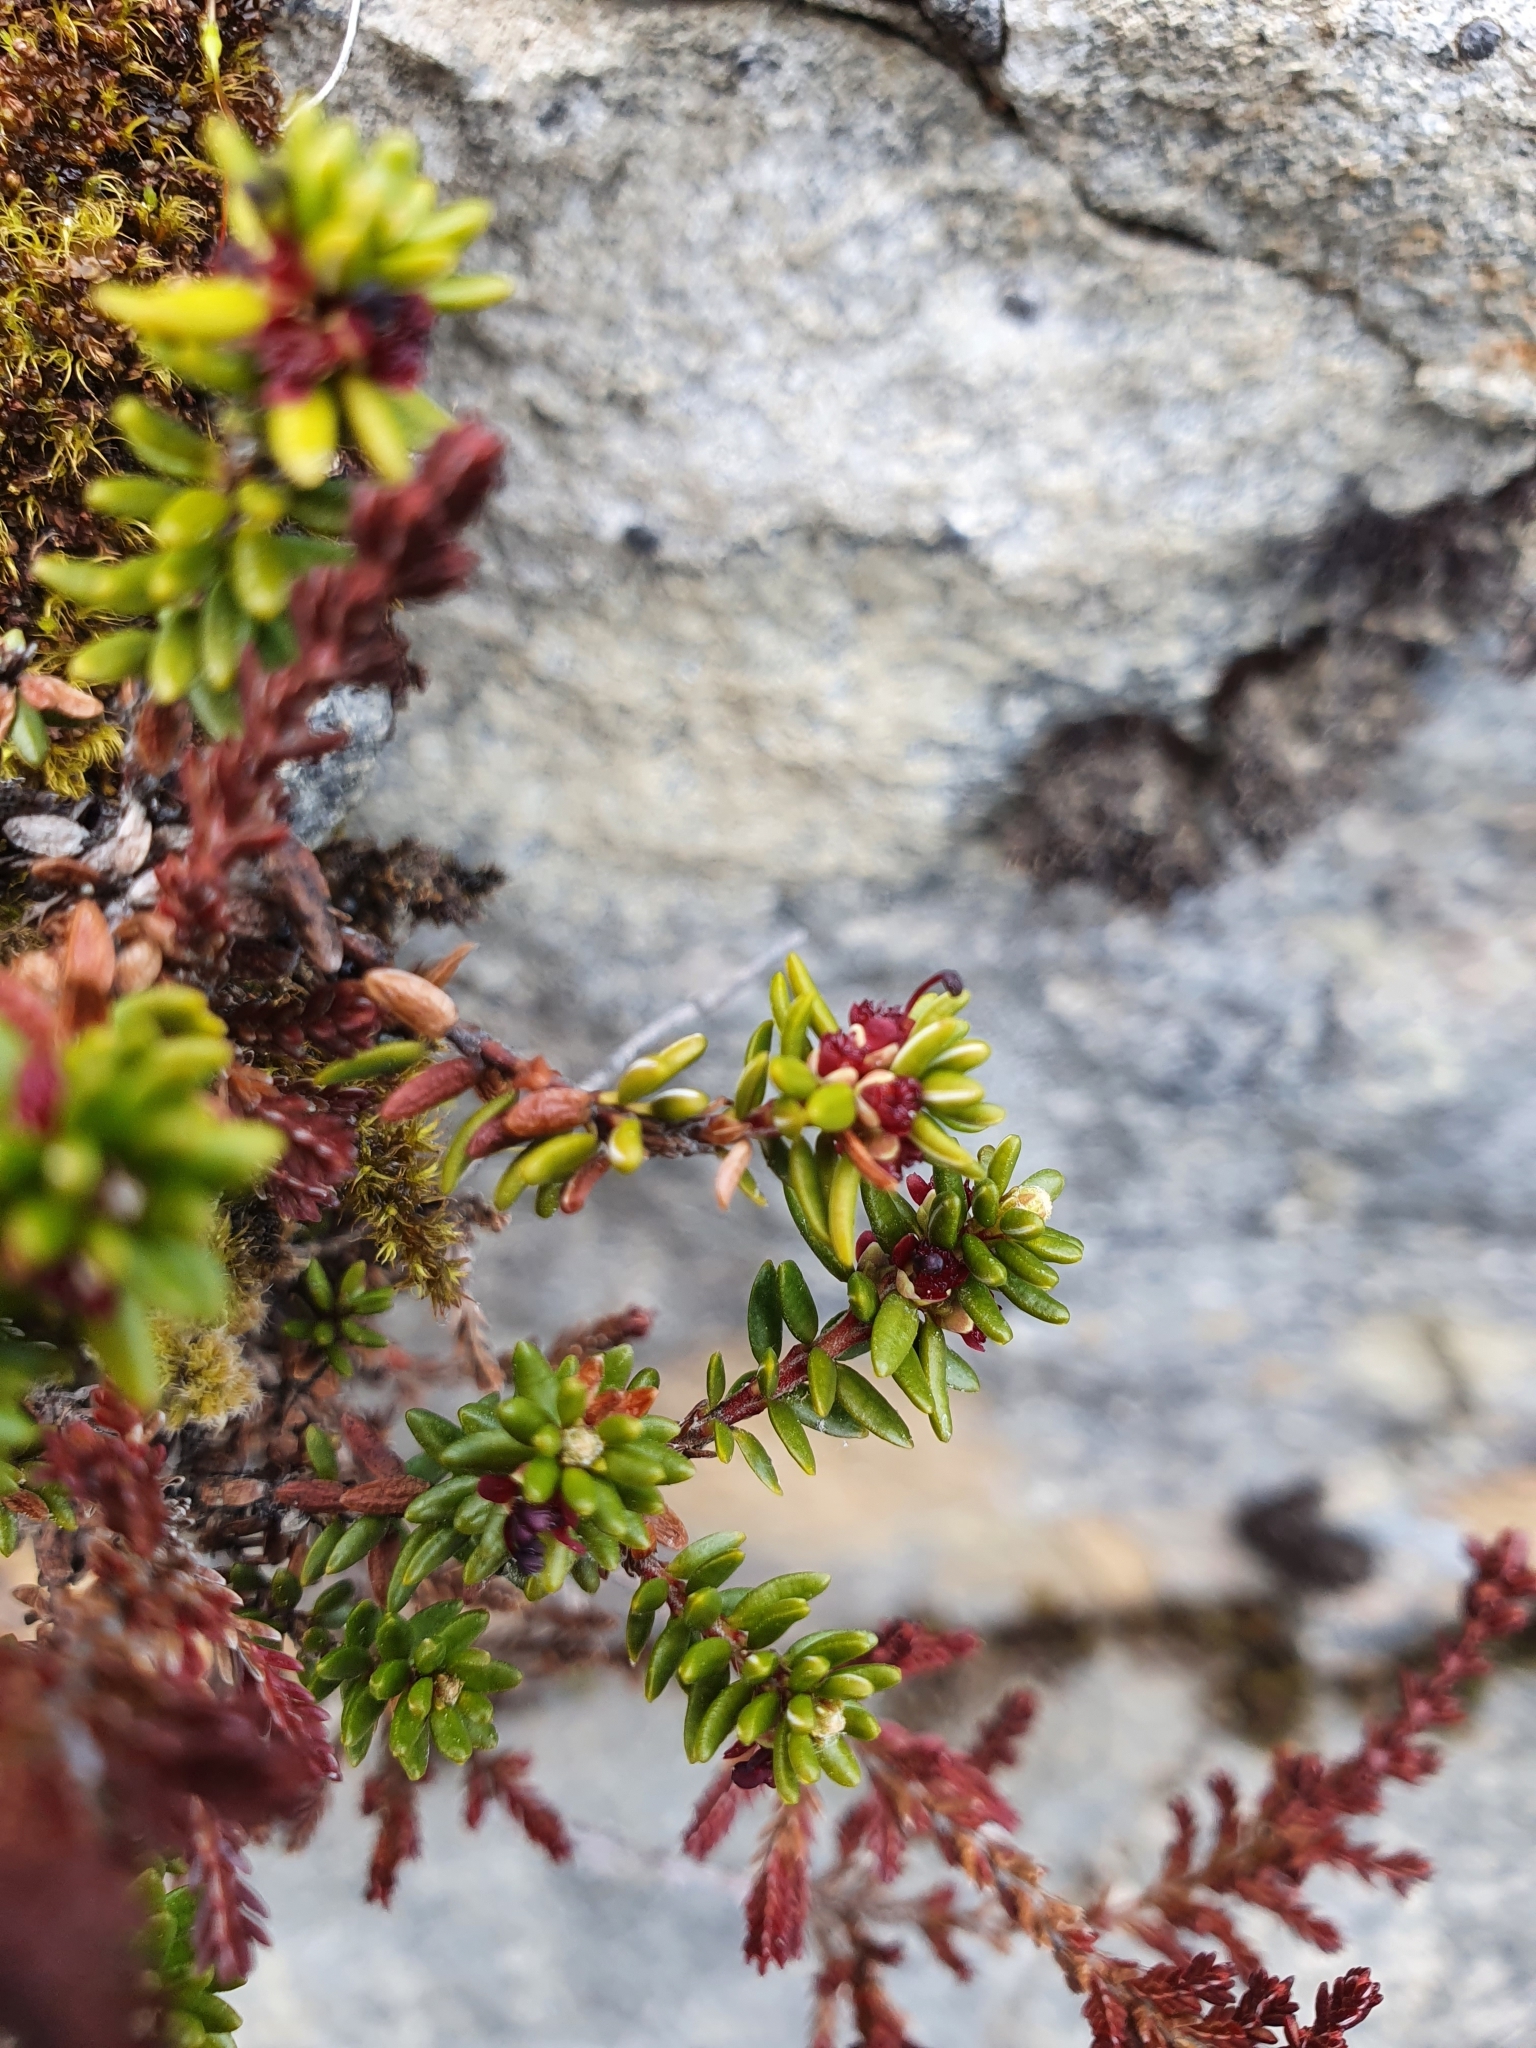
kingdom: Plantae
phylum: Tracheophyta
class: Magnoliopsida
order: Ericales
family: Ericaceae
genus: Empetrum
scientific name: Empetrum nigrum
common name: Black crowberry
